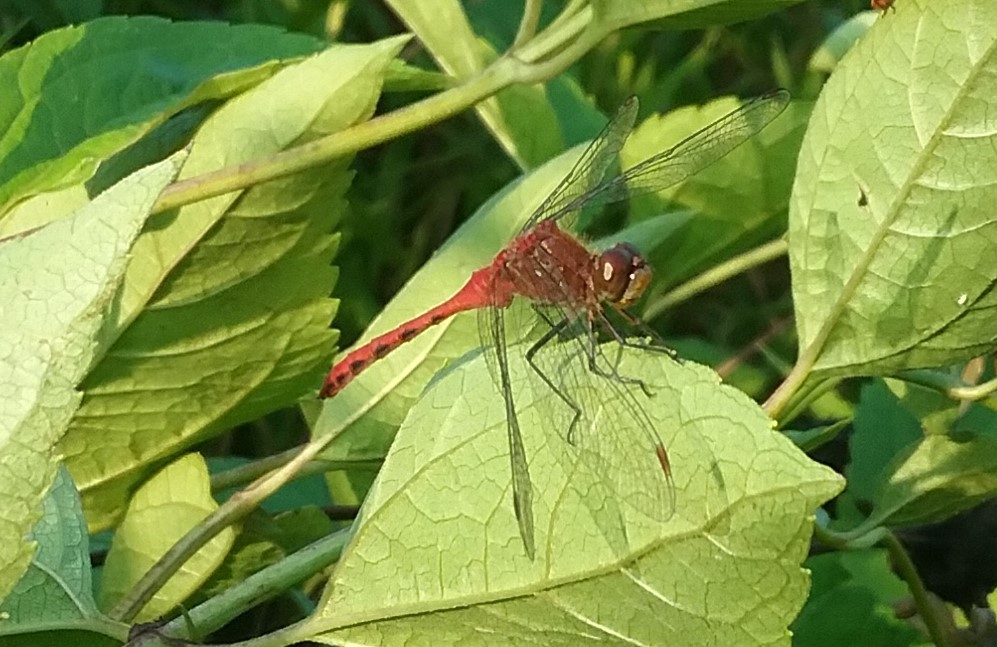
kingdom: Animalia
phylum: Arthropoda
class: Insecta
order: Odonata
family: Libellulidae
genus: Sympetrum
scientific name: Sympetrum rubicundulum
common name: Ruby meadowhawk
